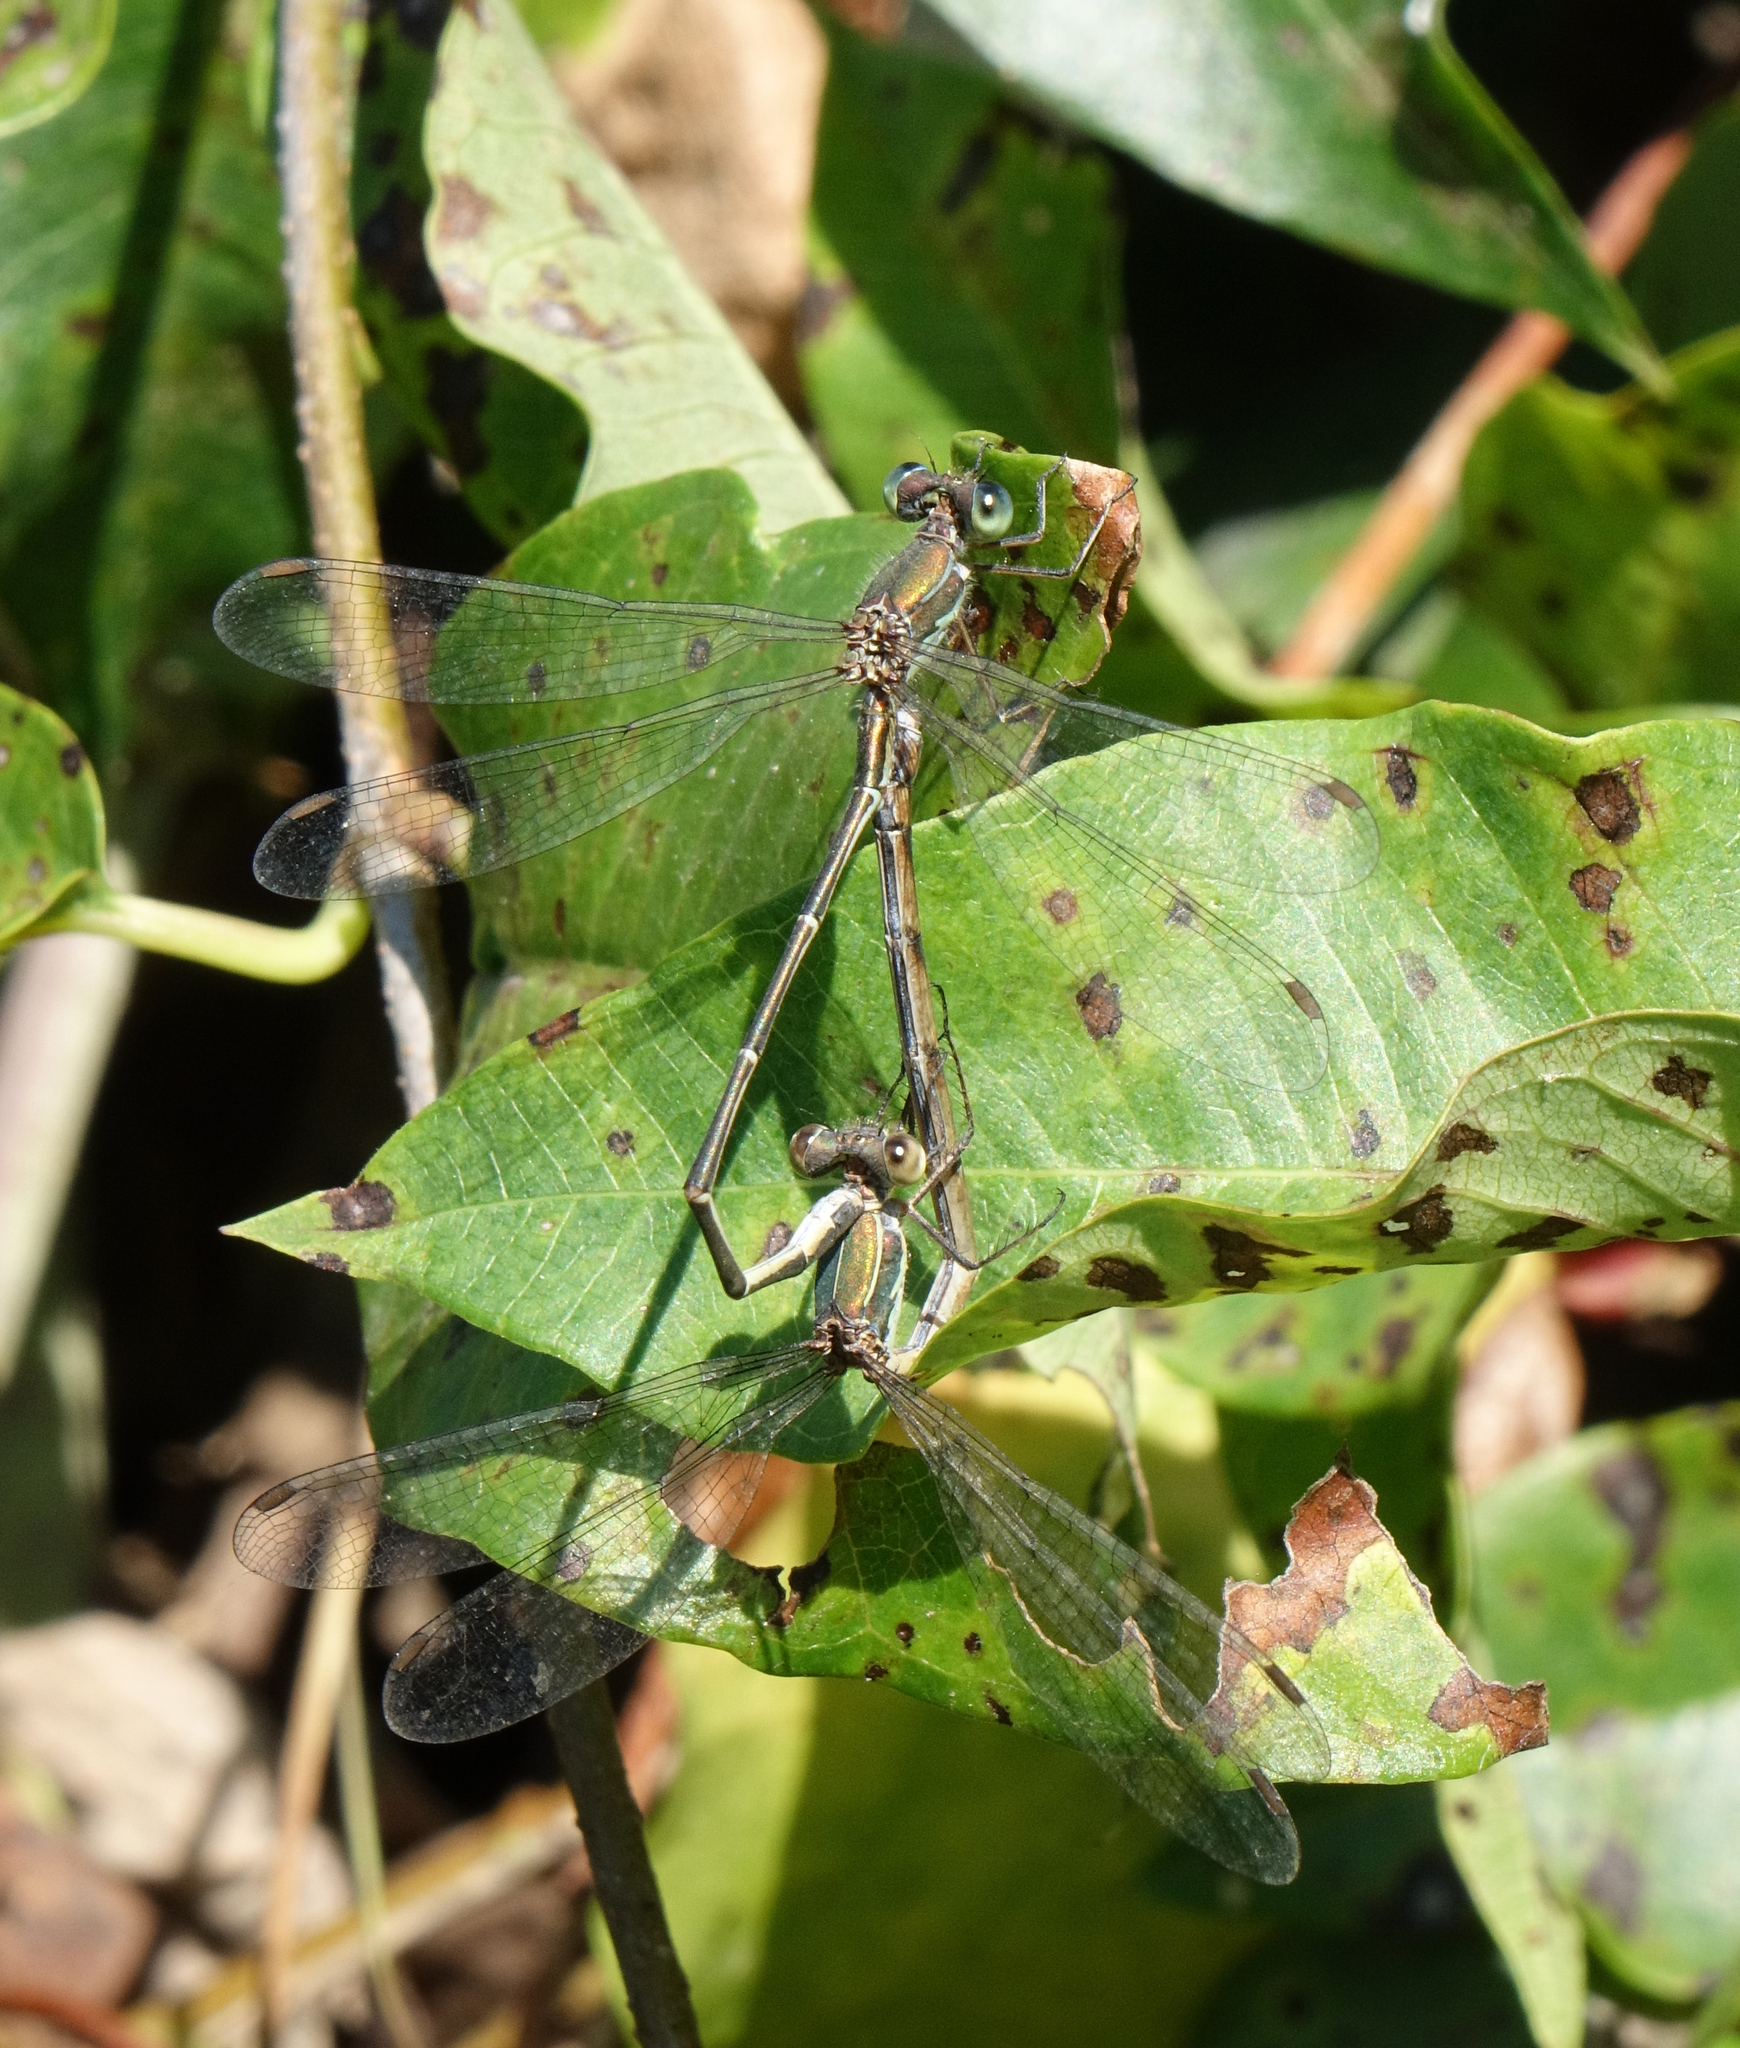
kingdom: Animalia
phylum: Arthropoda
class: Insecta
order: Odonata
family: Lestidae
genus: Chalcolestes
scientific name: Chalcolestes parvidens
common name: Eastern willow spreadwing
